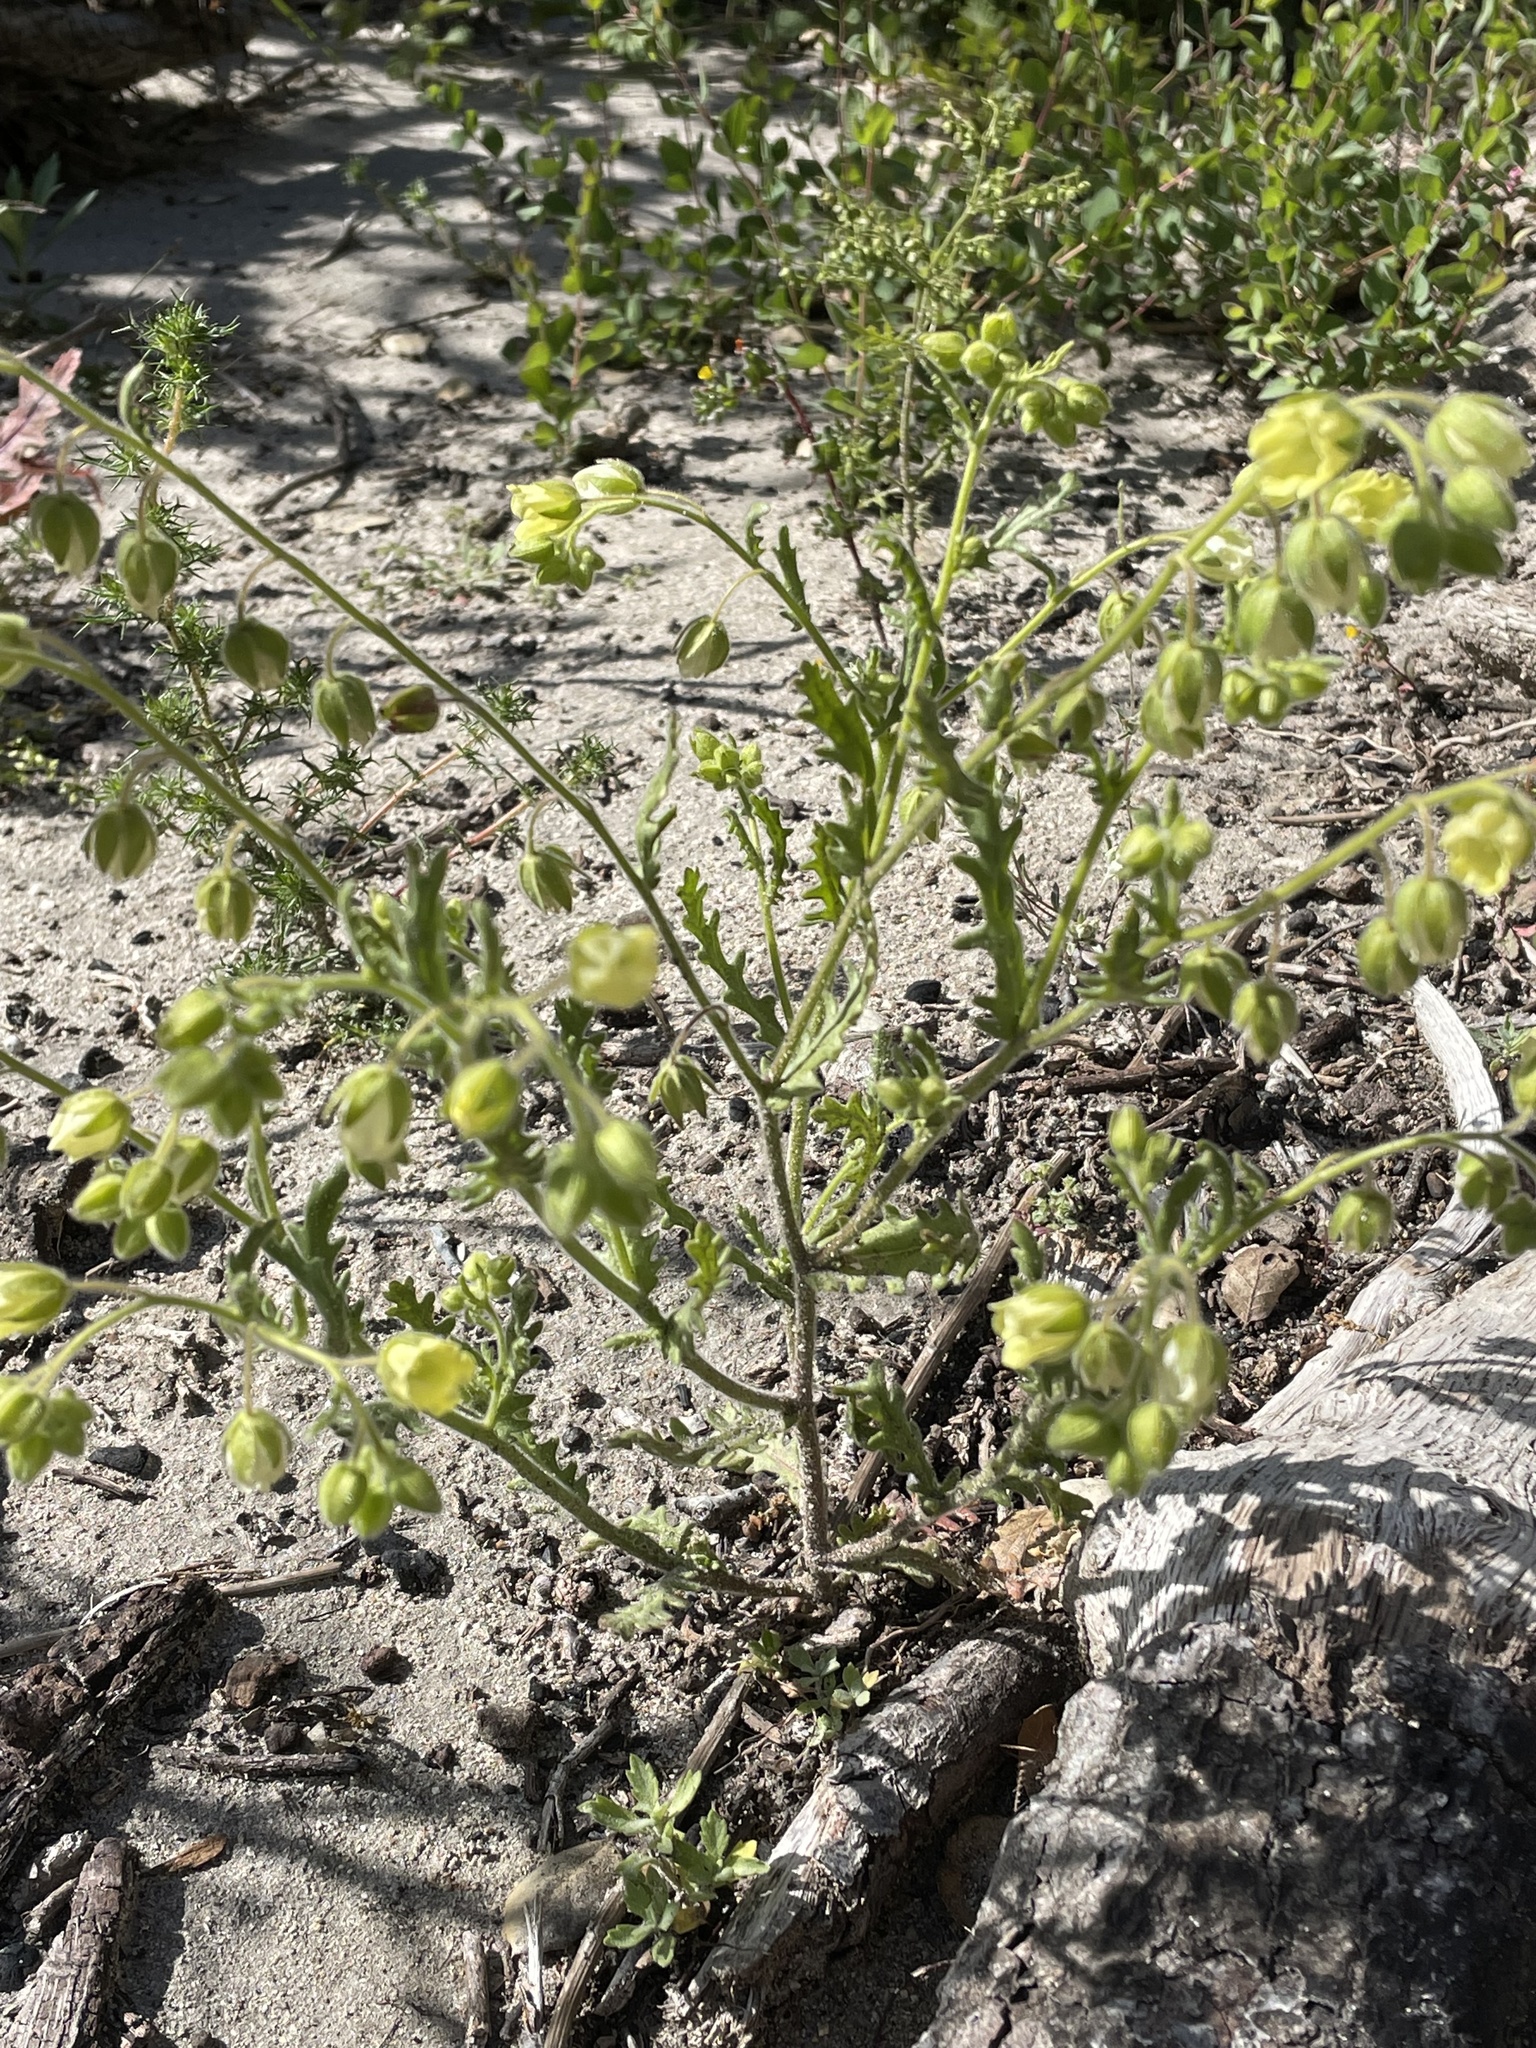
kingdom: Plantae
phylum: Tracheophyta
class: Magnoliopsida
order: Boraginales
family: Hydrophyllaceae
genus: Emmenanthe
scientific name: Emmenanthe penduliflora
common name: Whispering-bells
